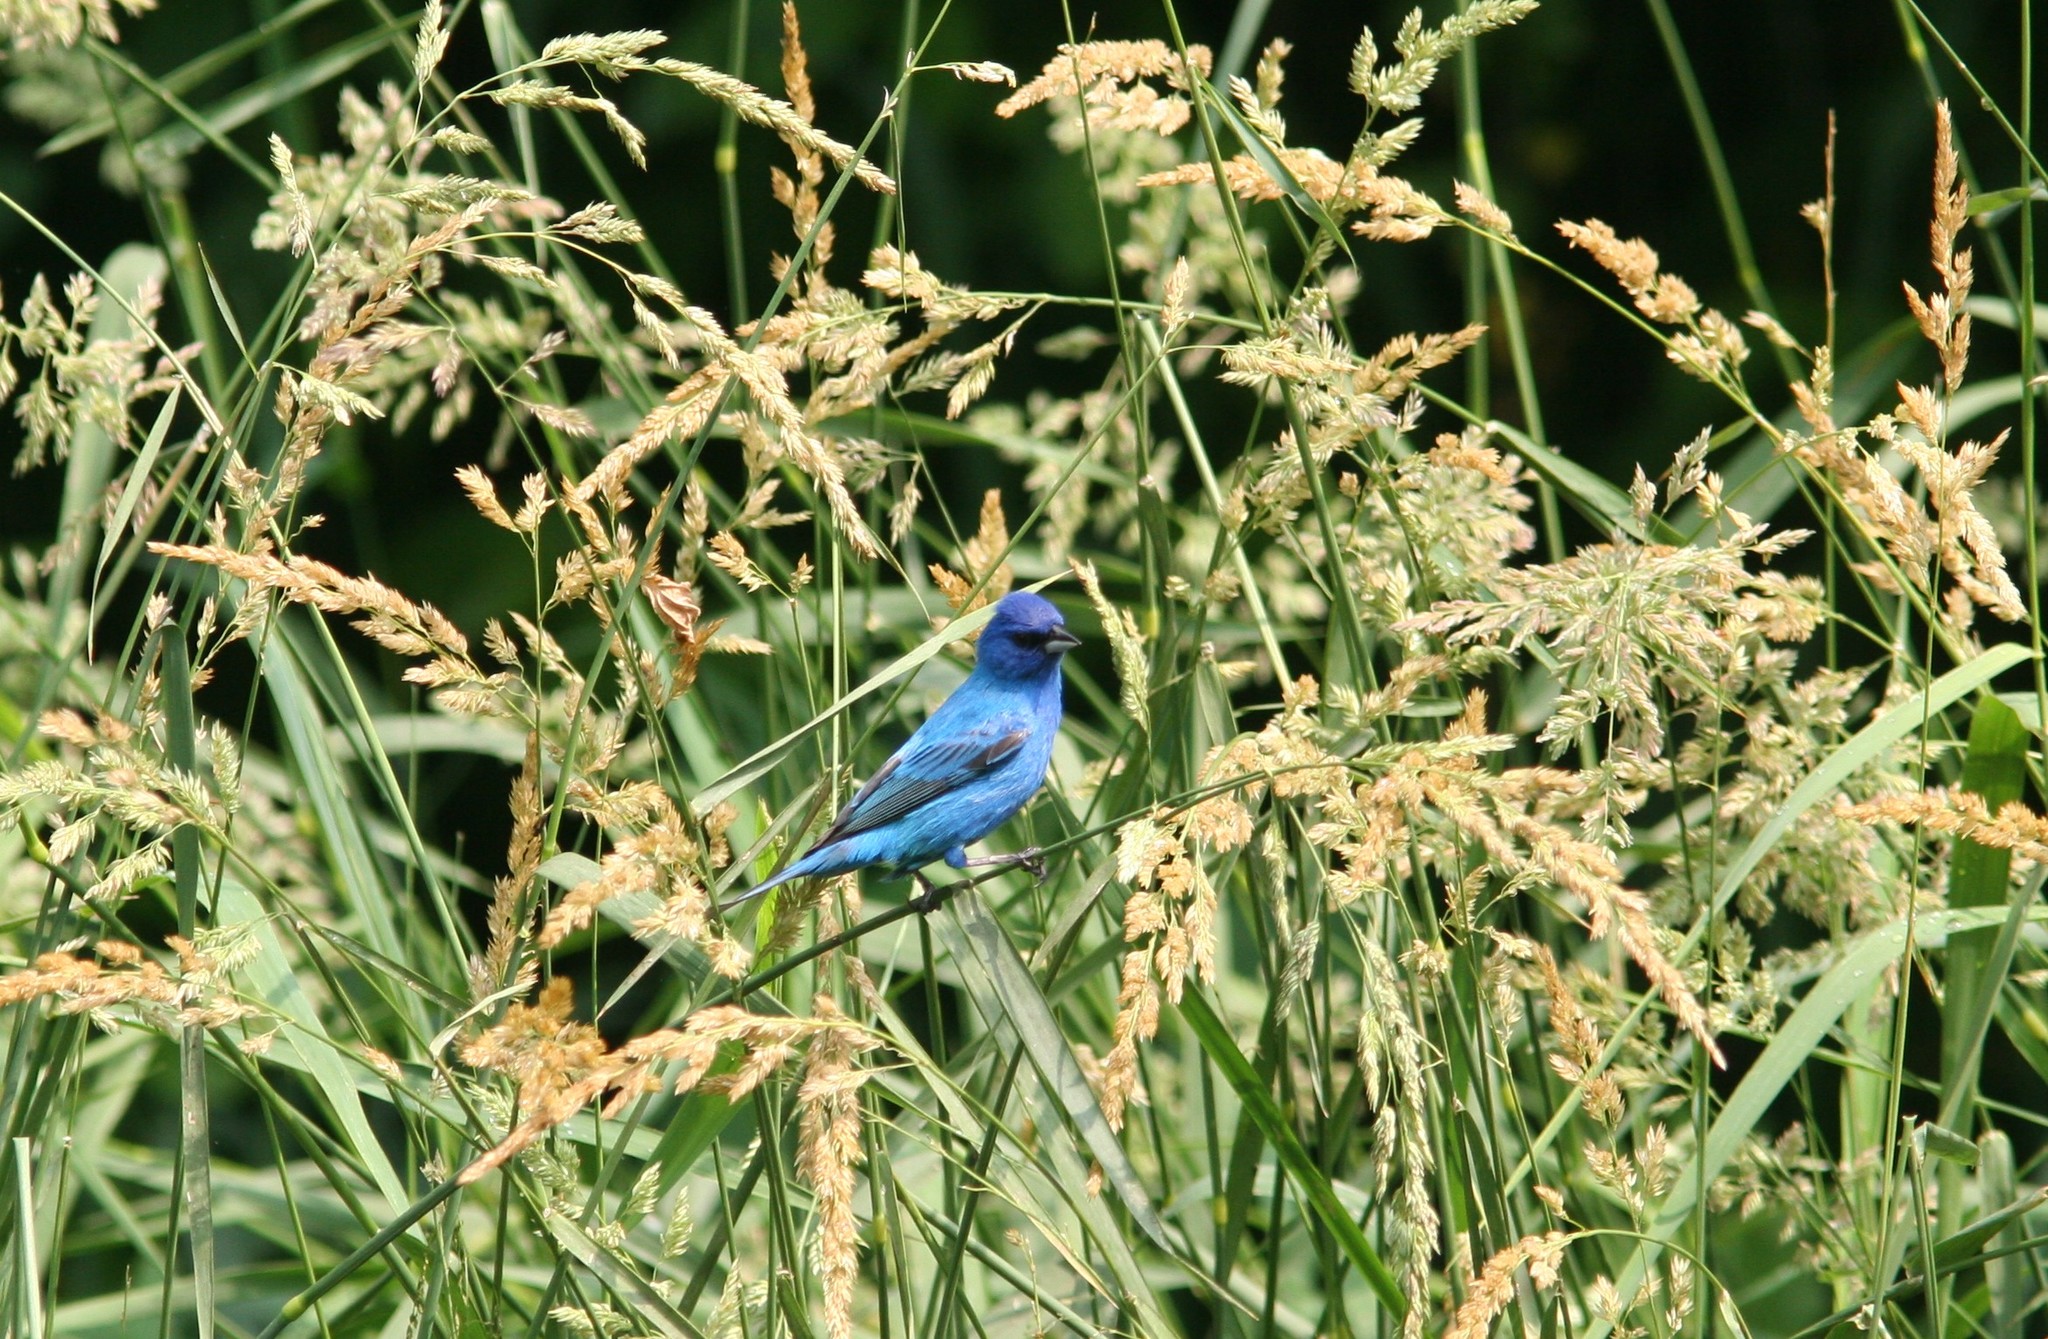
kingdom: Animalia
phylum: Chordata
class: Aves
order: Passeriformes
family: Cardinalidae
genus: Passerina
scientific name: Passerina cyanea
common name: Indigo bunting
